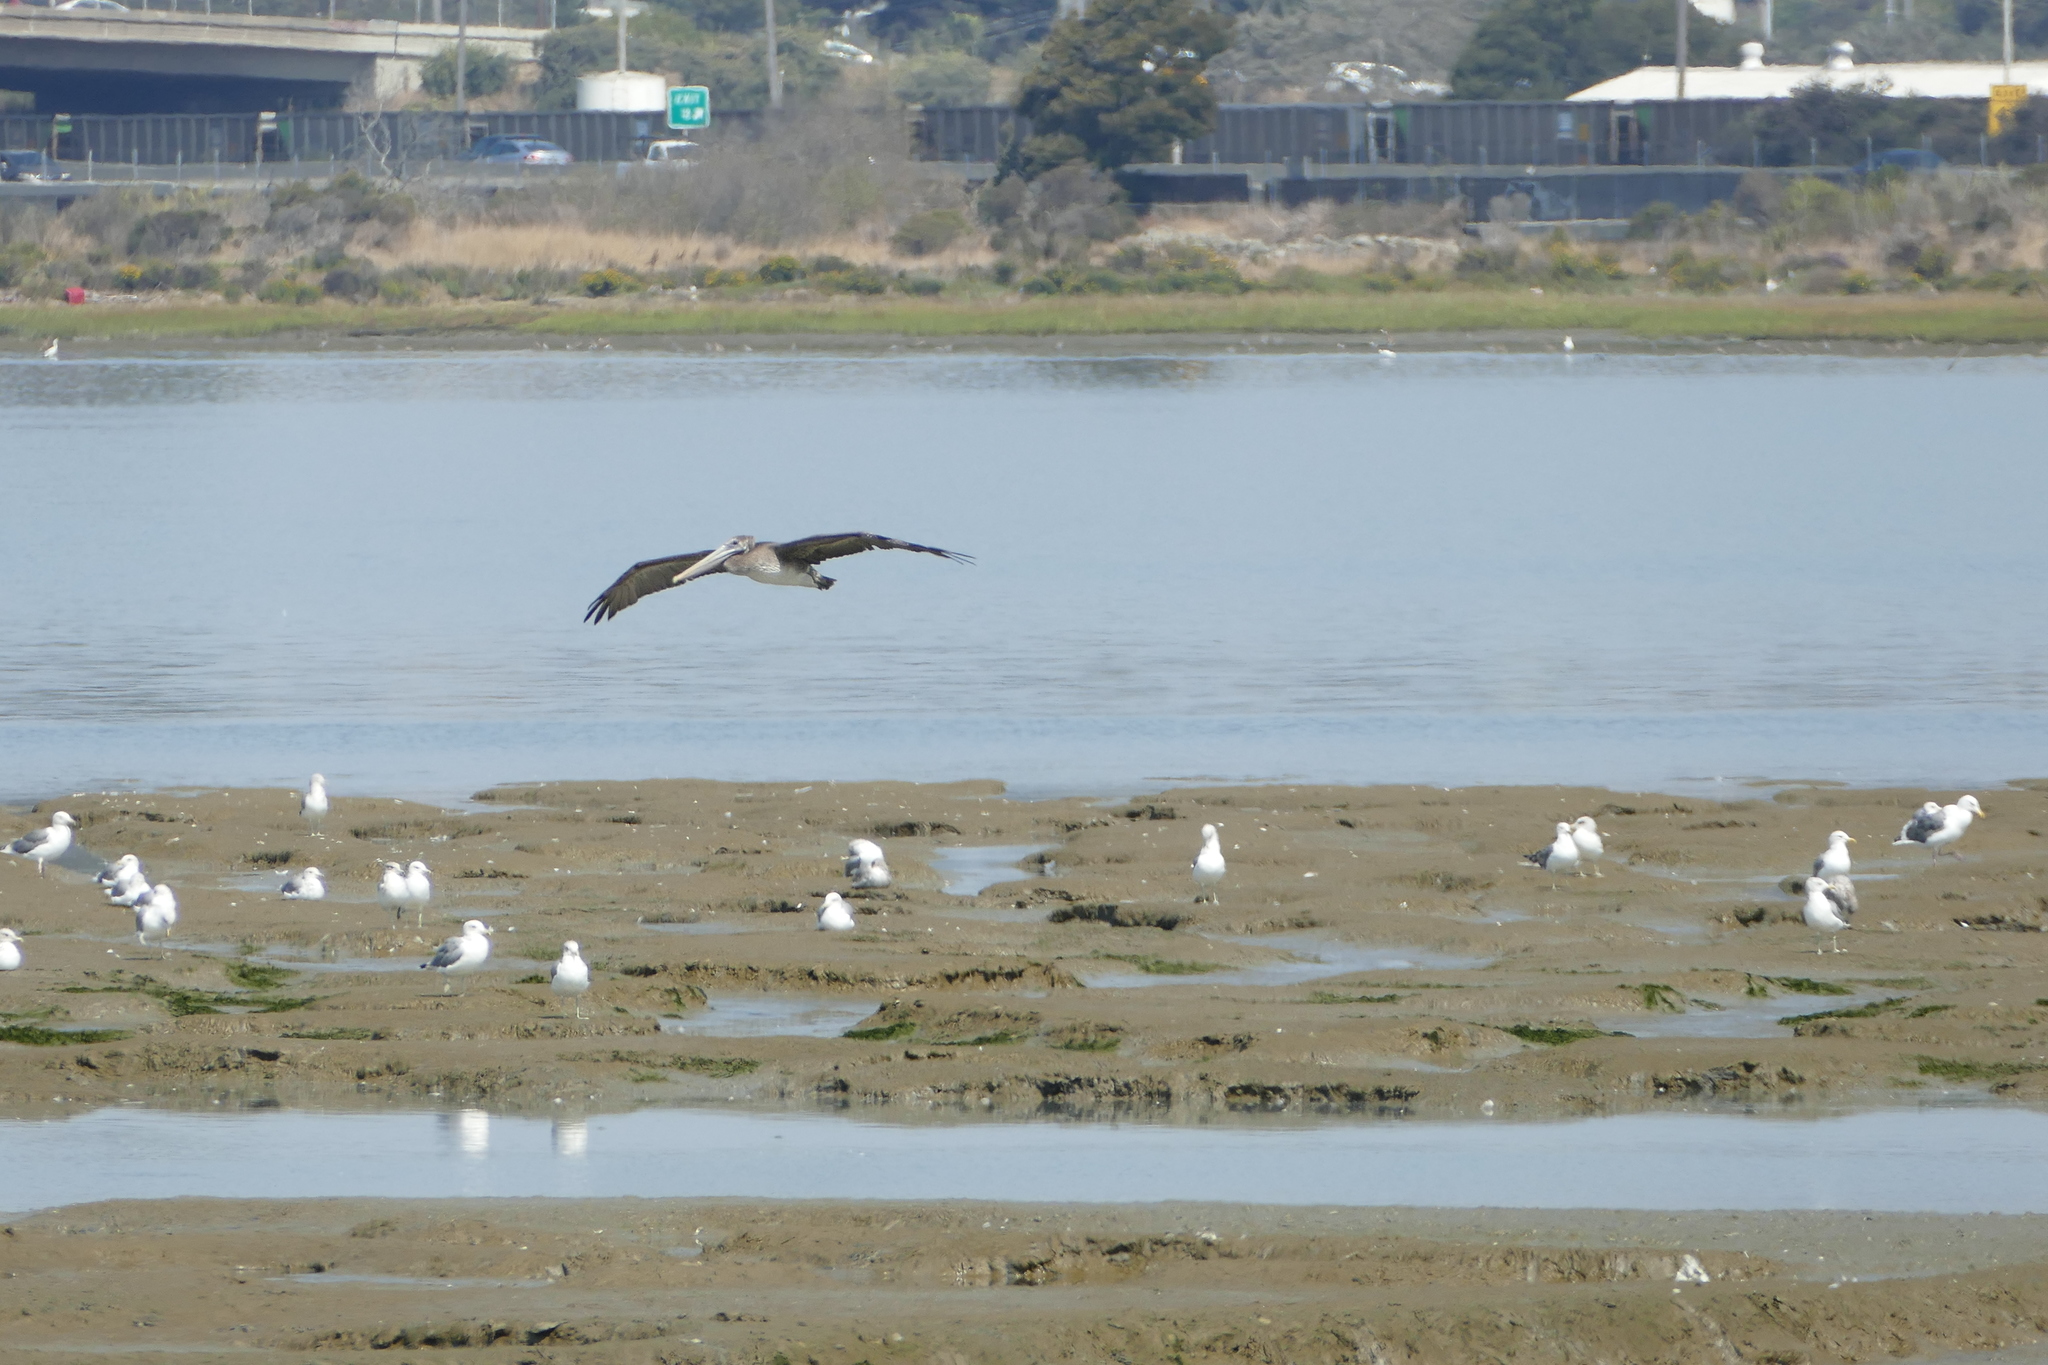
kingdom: Animalia
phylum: Chordata
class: Aves
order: Pelecaniformes
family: Pelecanidae
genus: Pelecanus
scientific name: Pelecanus occidentalis
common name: Brown pelican
